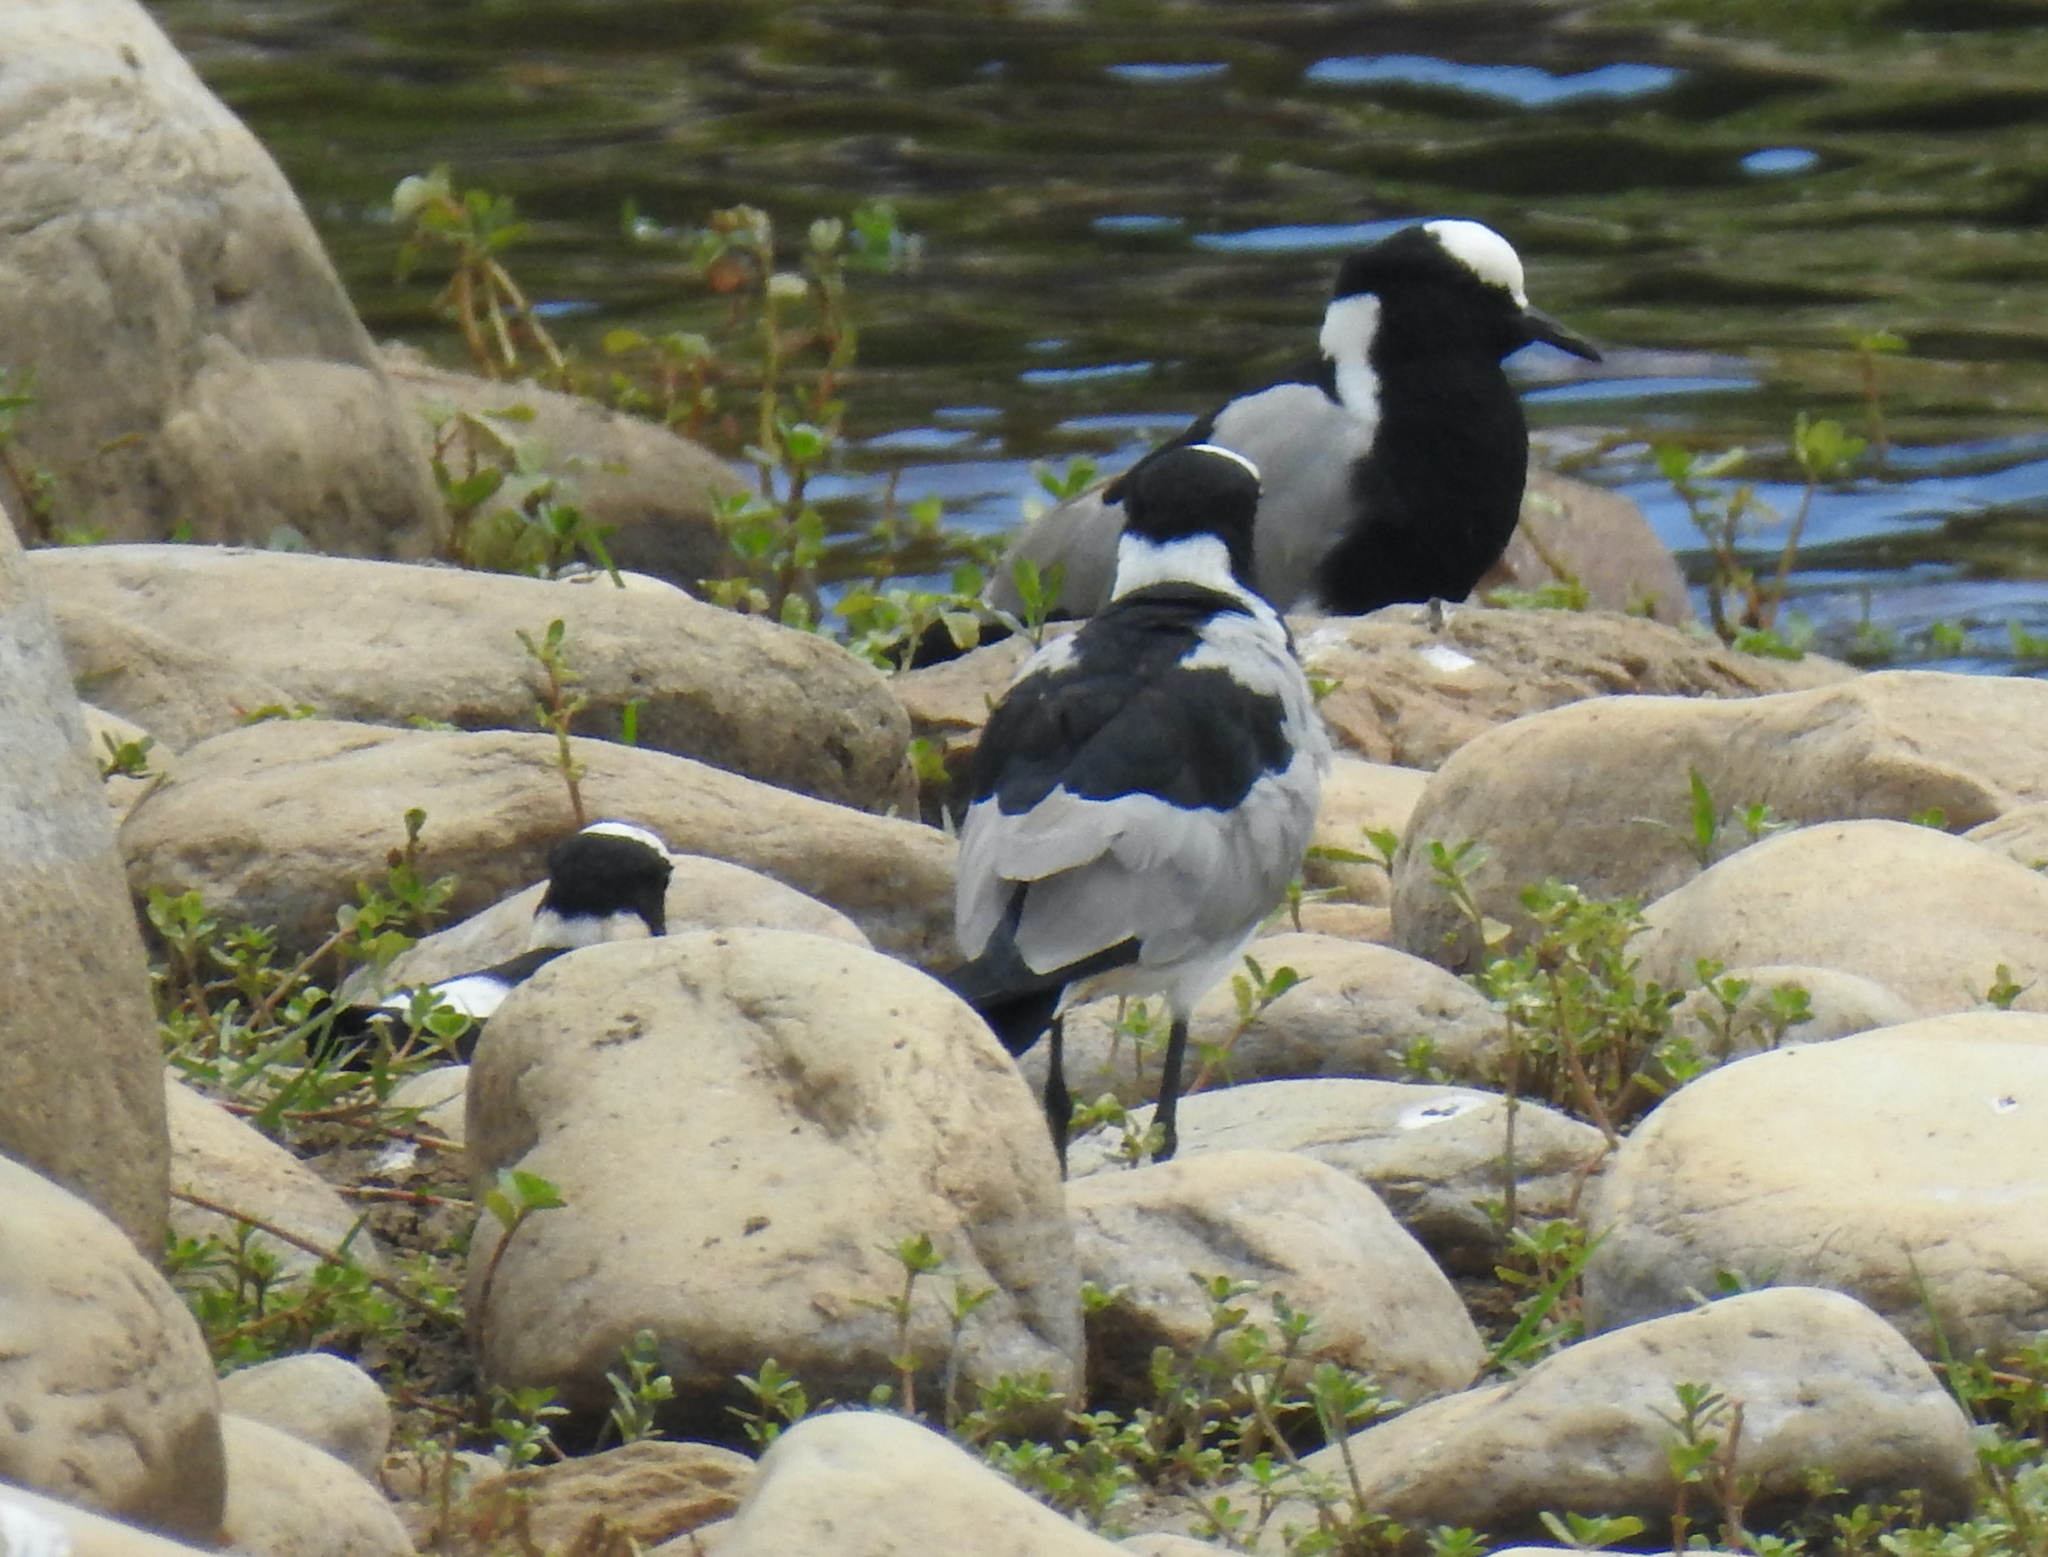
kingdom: Animalia
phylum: Chordata
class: Aves
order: Charadriiformes
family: Charadriidae
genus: Vanellus
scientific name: Vanellus armatus
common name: Blacksmith lapwing
